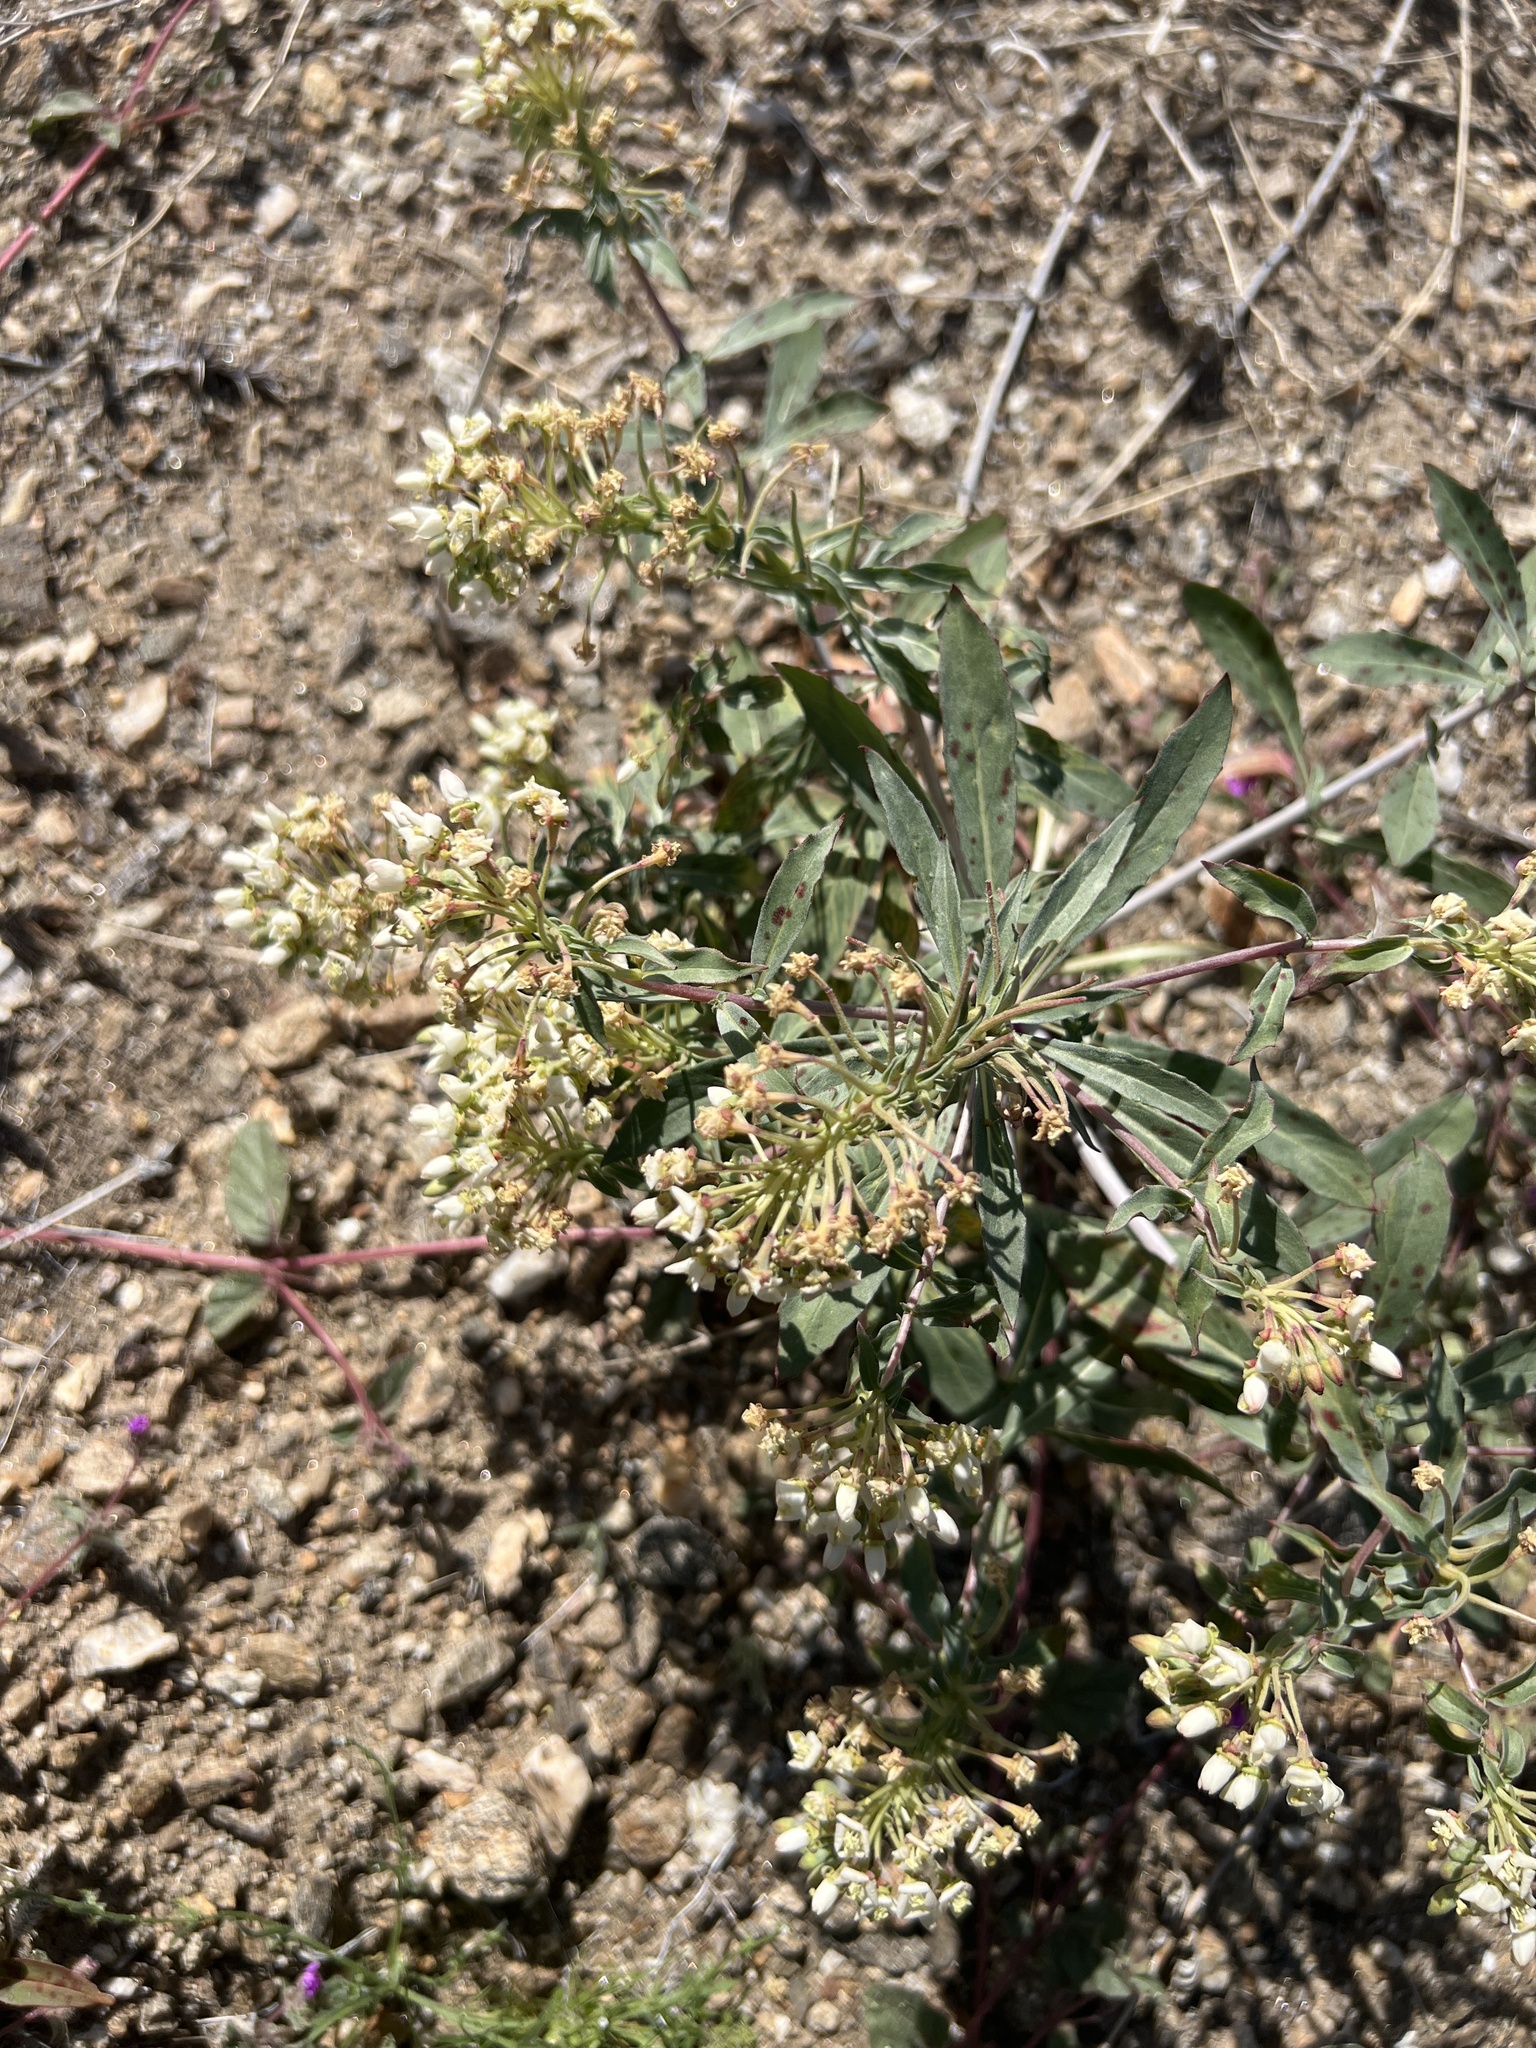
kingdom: Plantae
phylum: Tracheophyta
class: Magnoliopsida
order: Myrtales
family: Onagraceae
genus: Eremothera
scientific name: Eremothera boothii
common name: Booth's evening primrose
